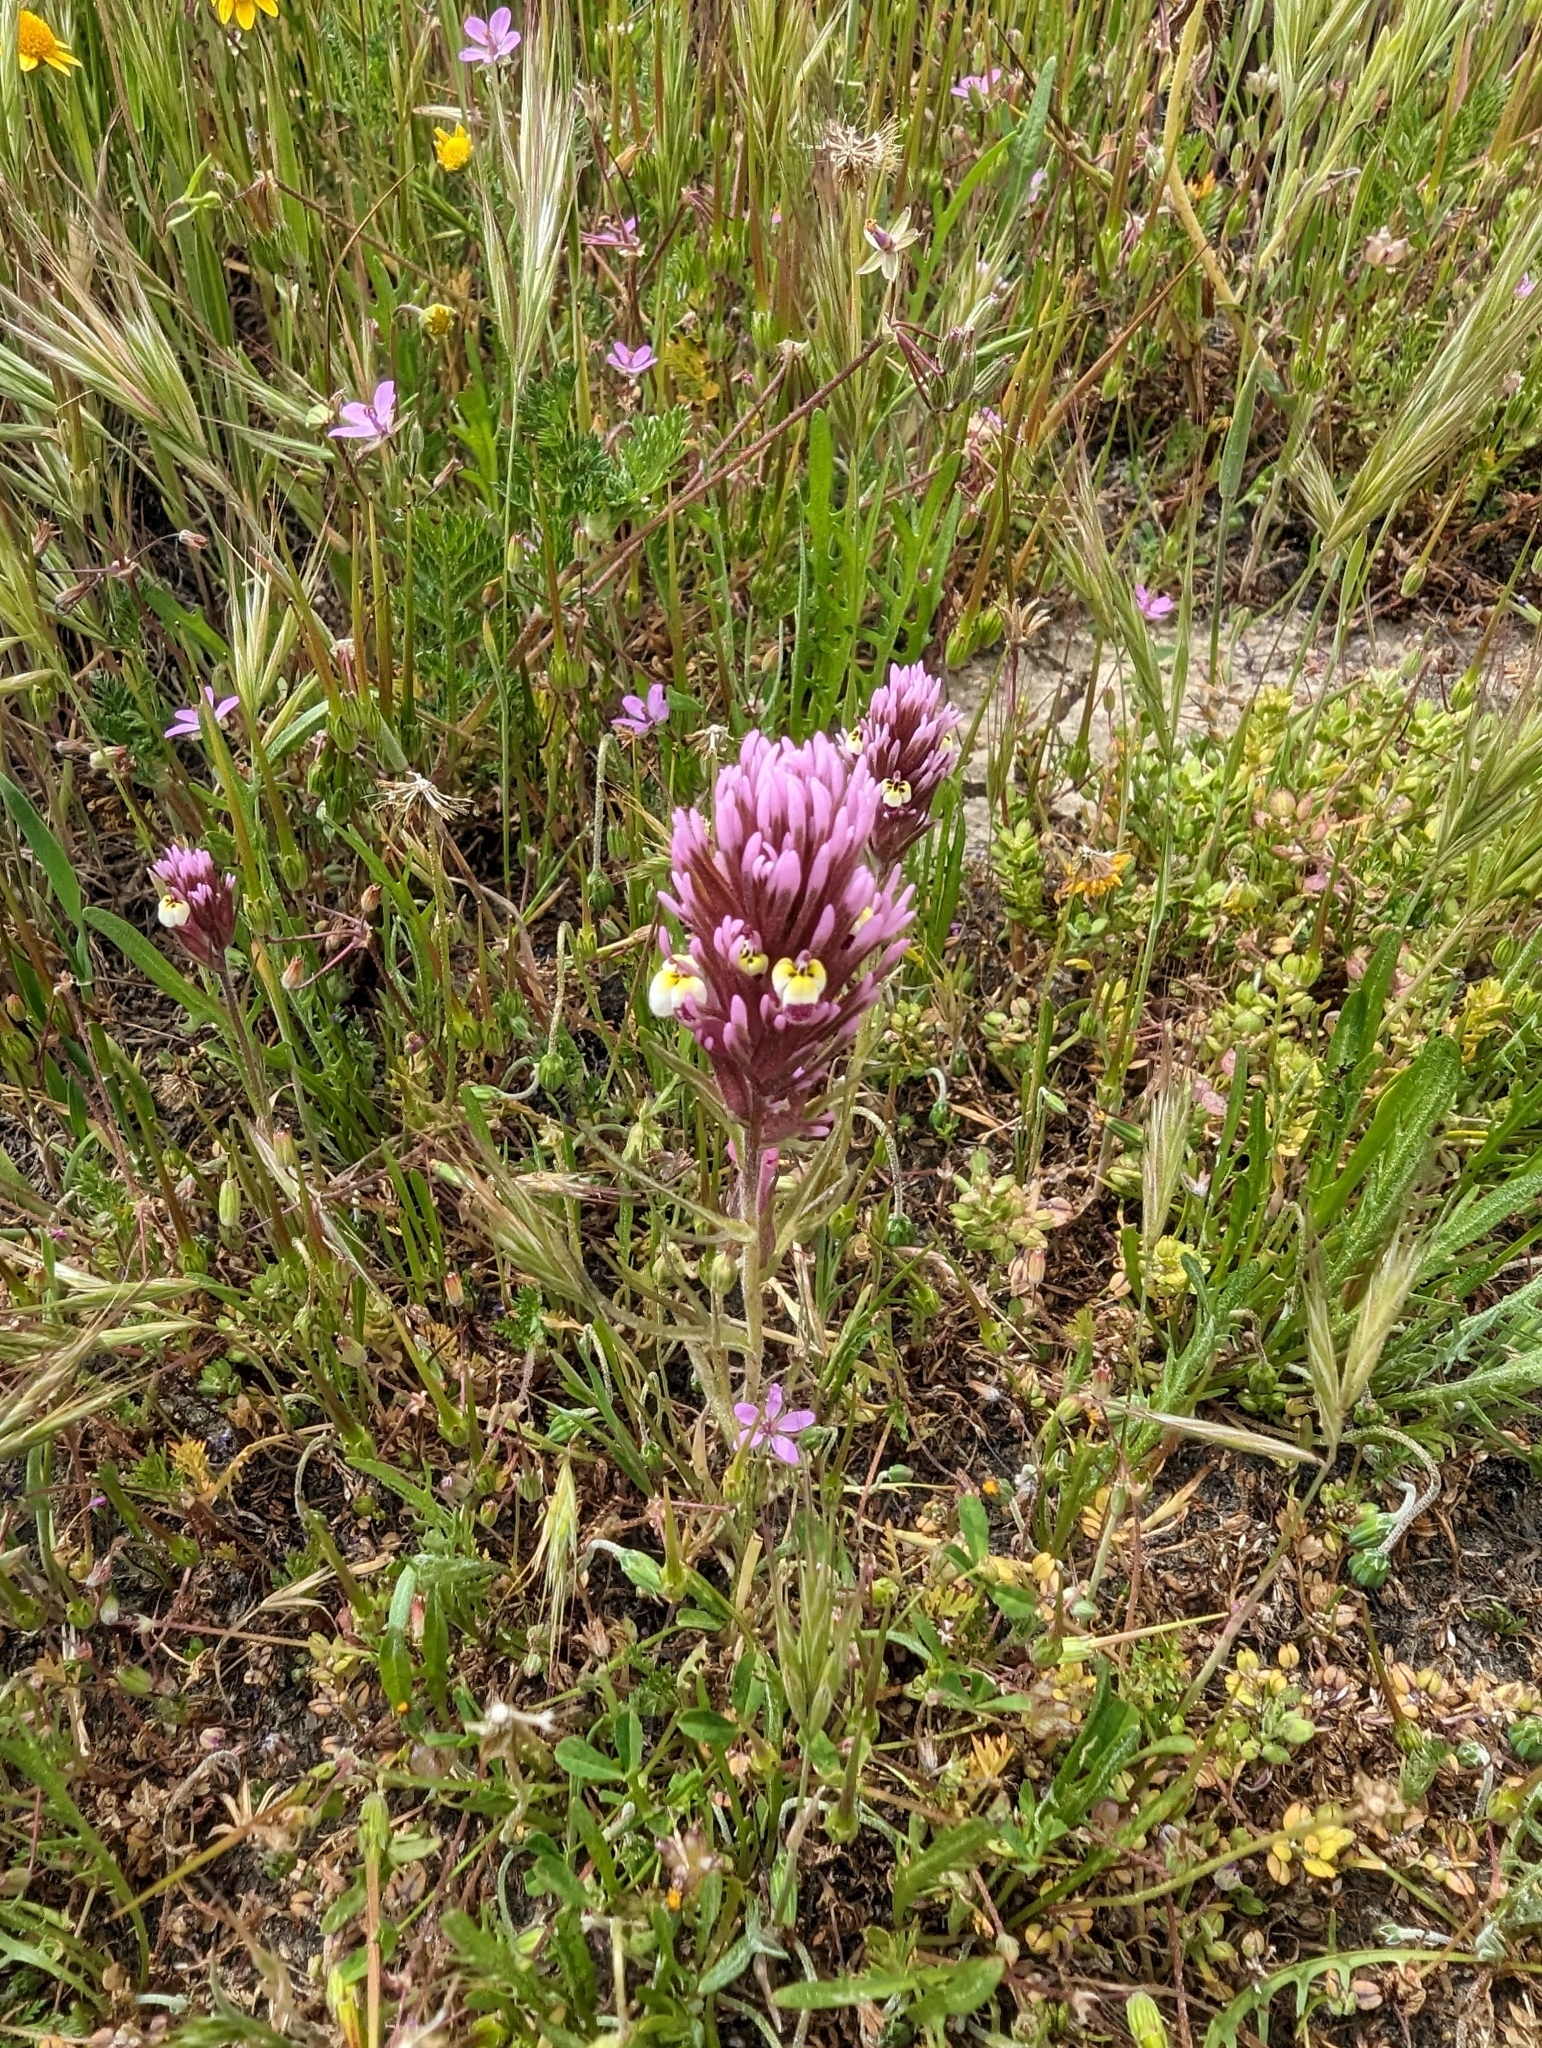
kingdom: Plantae
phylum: Tracheophyta
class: Magnoliopsida
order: Lamiales
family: Orobanchaceae
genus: Castilleja
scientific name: Castilleja densiflora
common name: Dense-flower indian paintbrush
